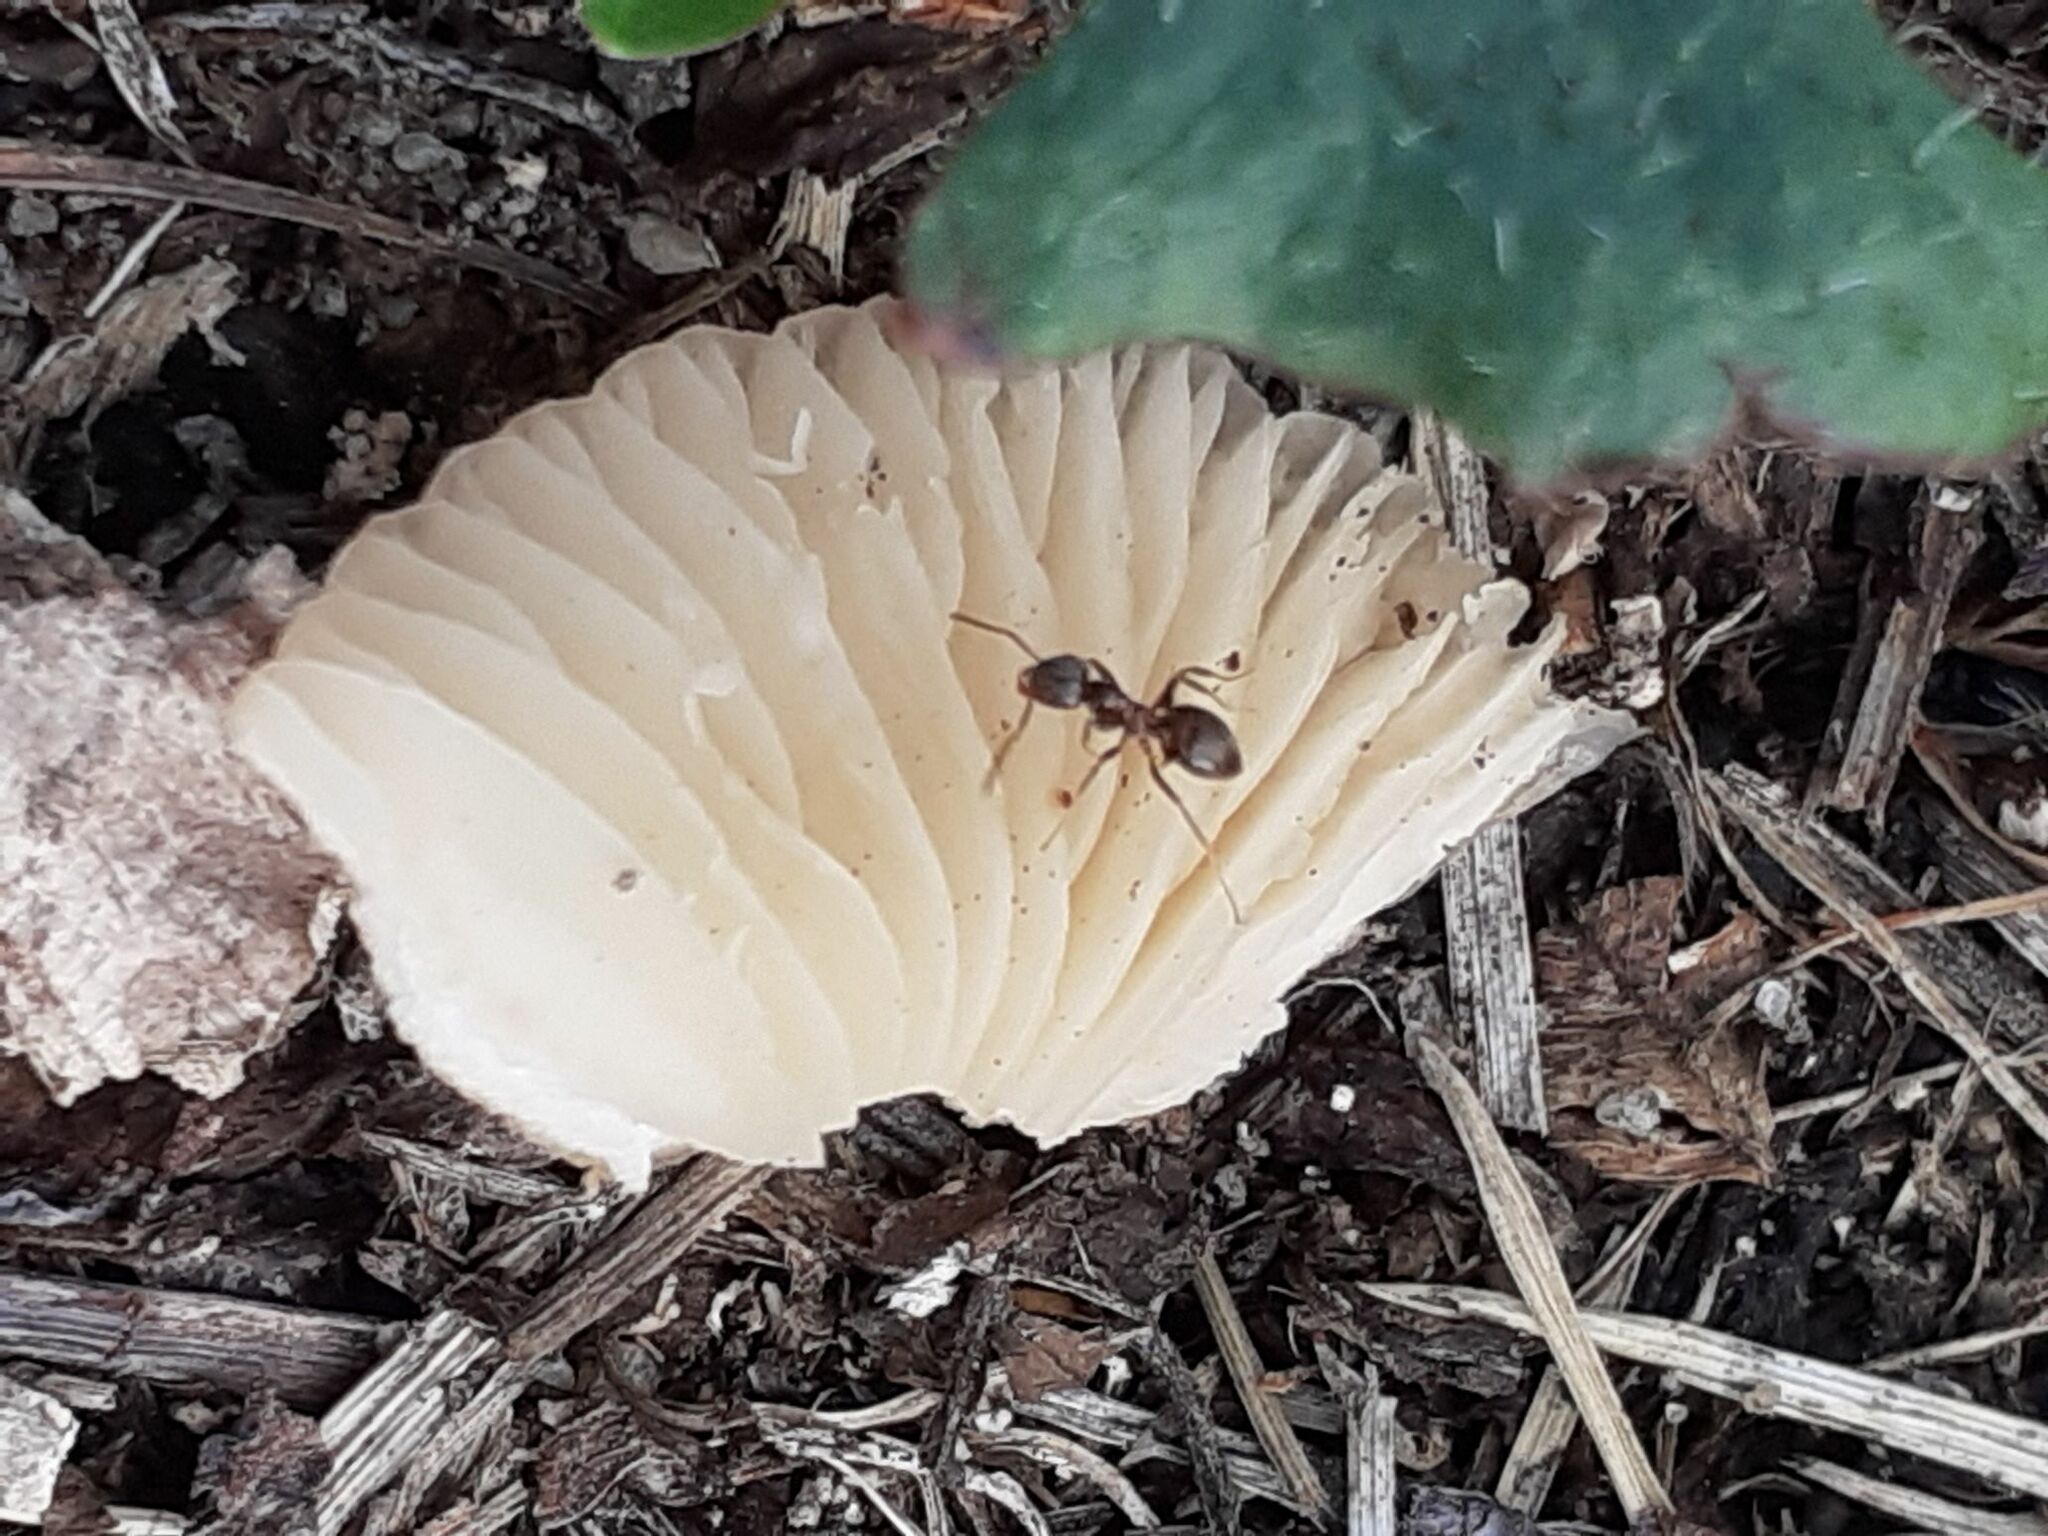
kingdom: Fungi
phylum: Basidiomycota
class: Agaricomycetes
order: Agaricales
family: Marasmiaceae
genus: Marasmius
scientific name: Marasmius oreades
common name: Fairy ring champignon
